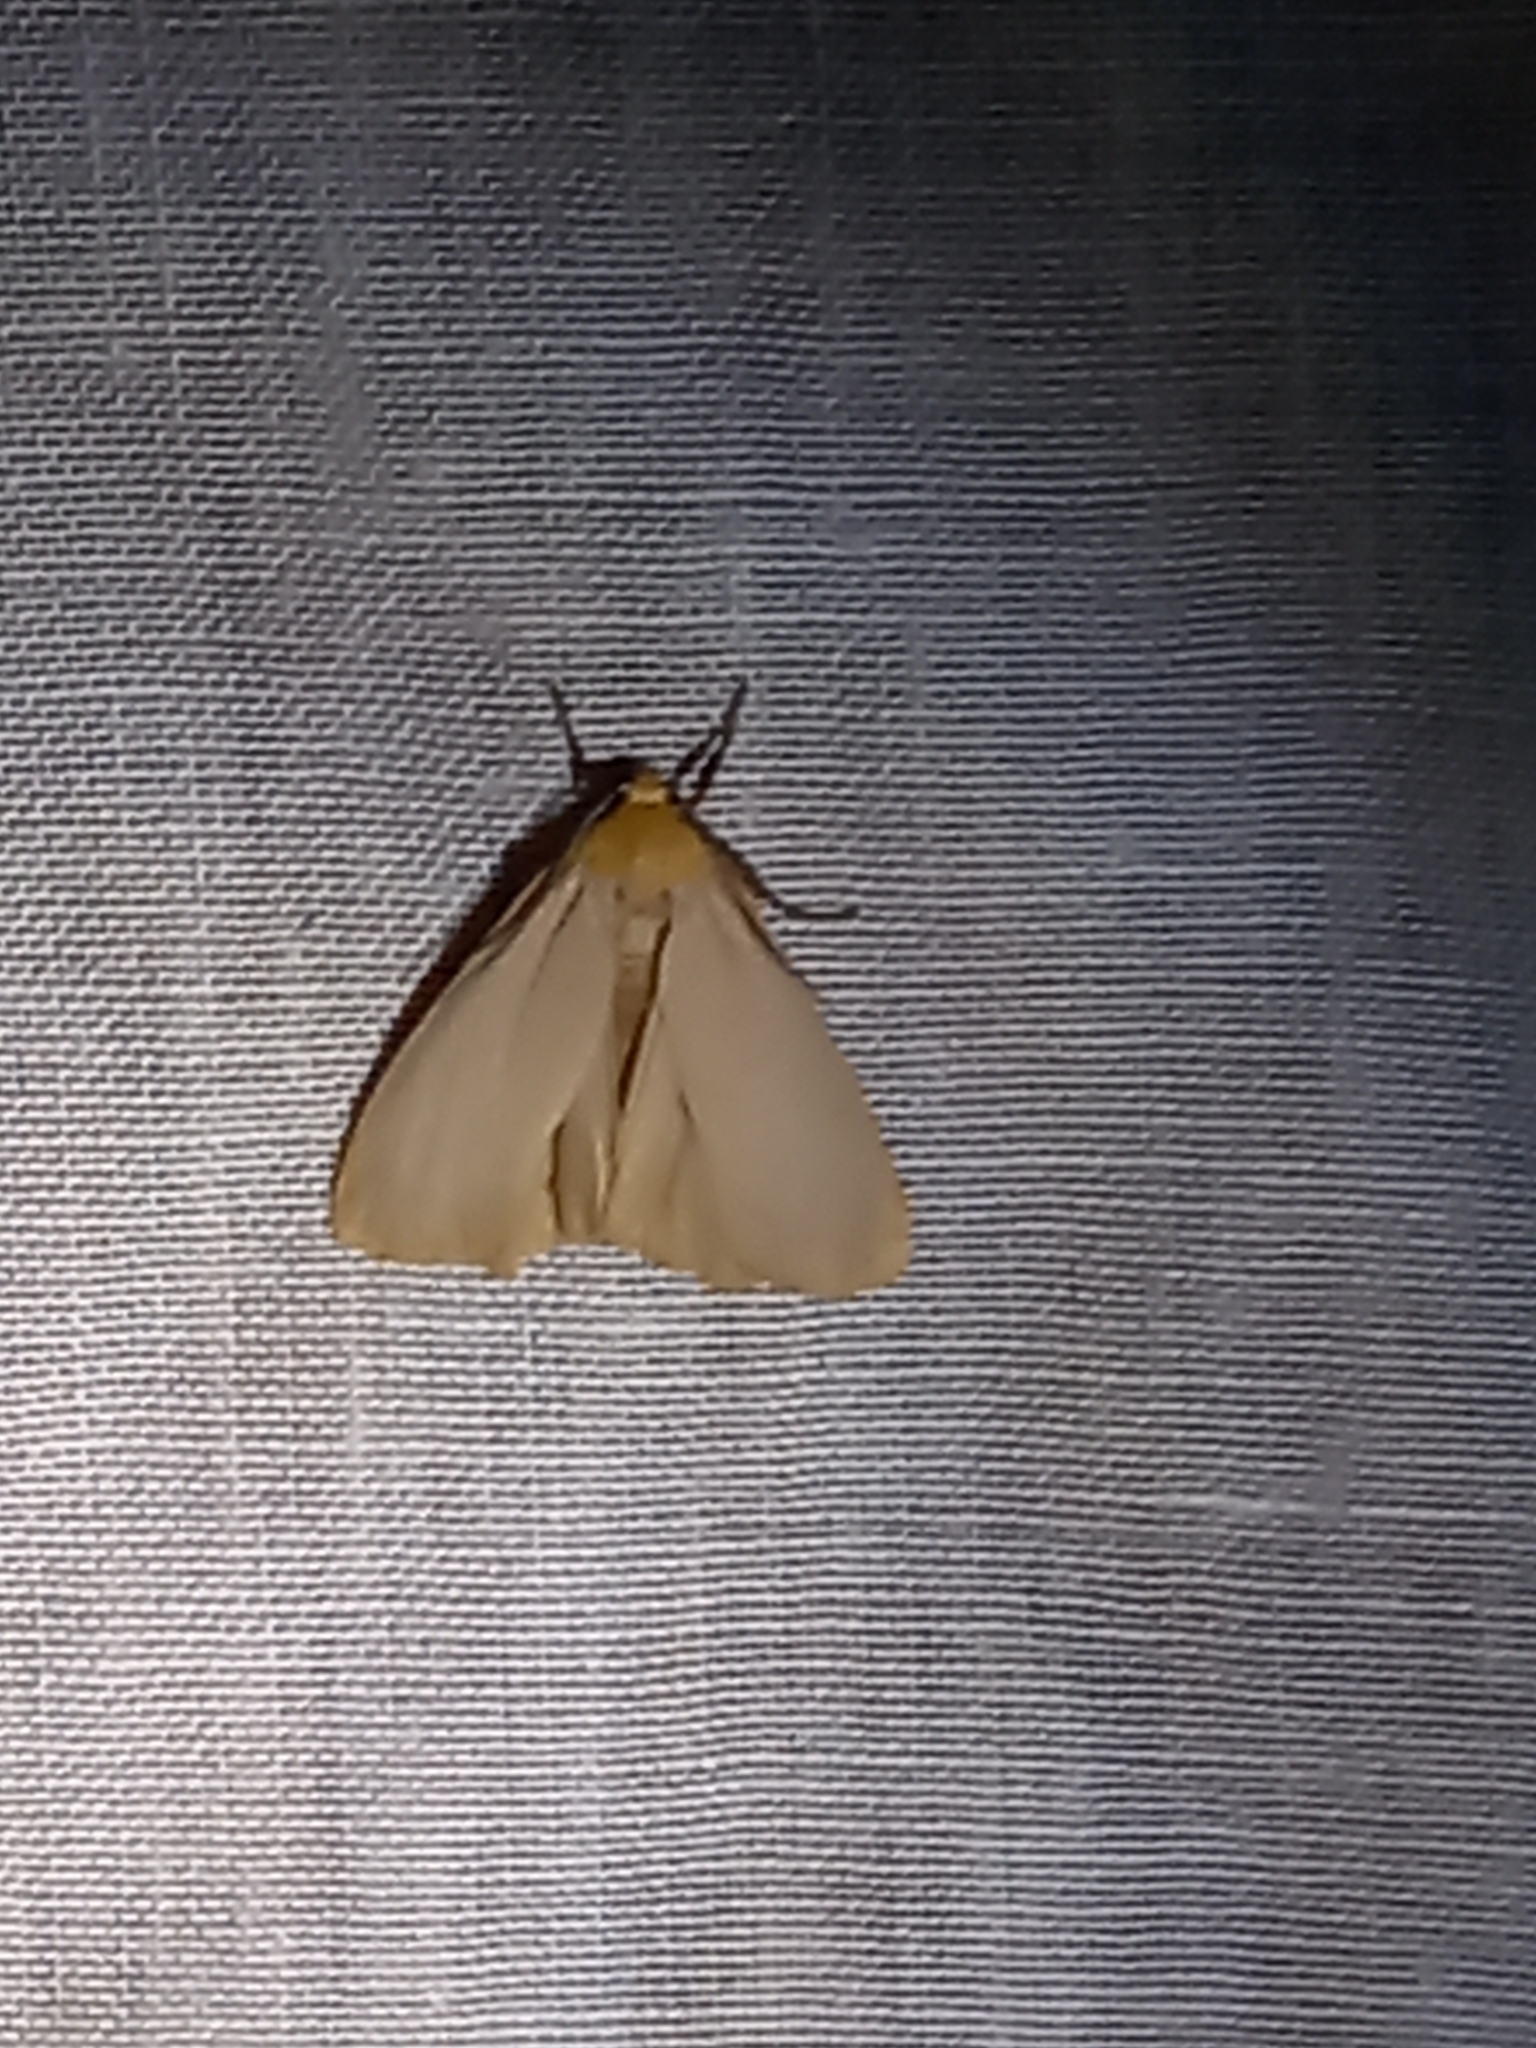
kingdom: Animalia
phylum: Arthropoda
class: Insecta
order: Lepidoptera
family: Erebidae
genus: Katha
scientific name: Katha depressa
